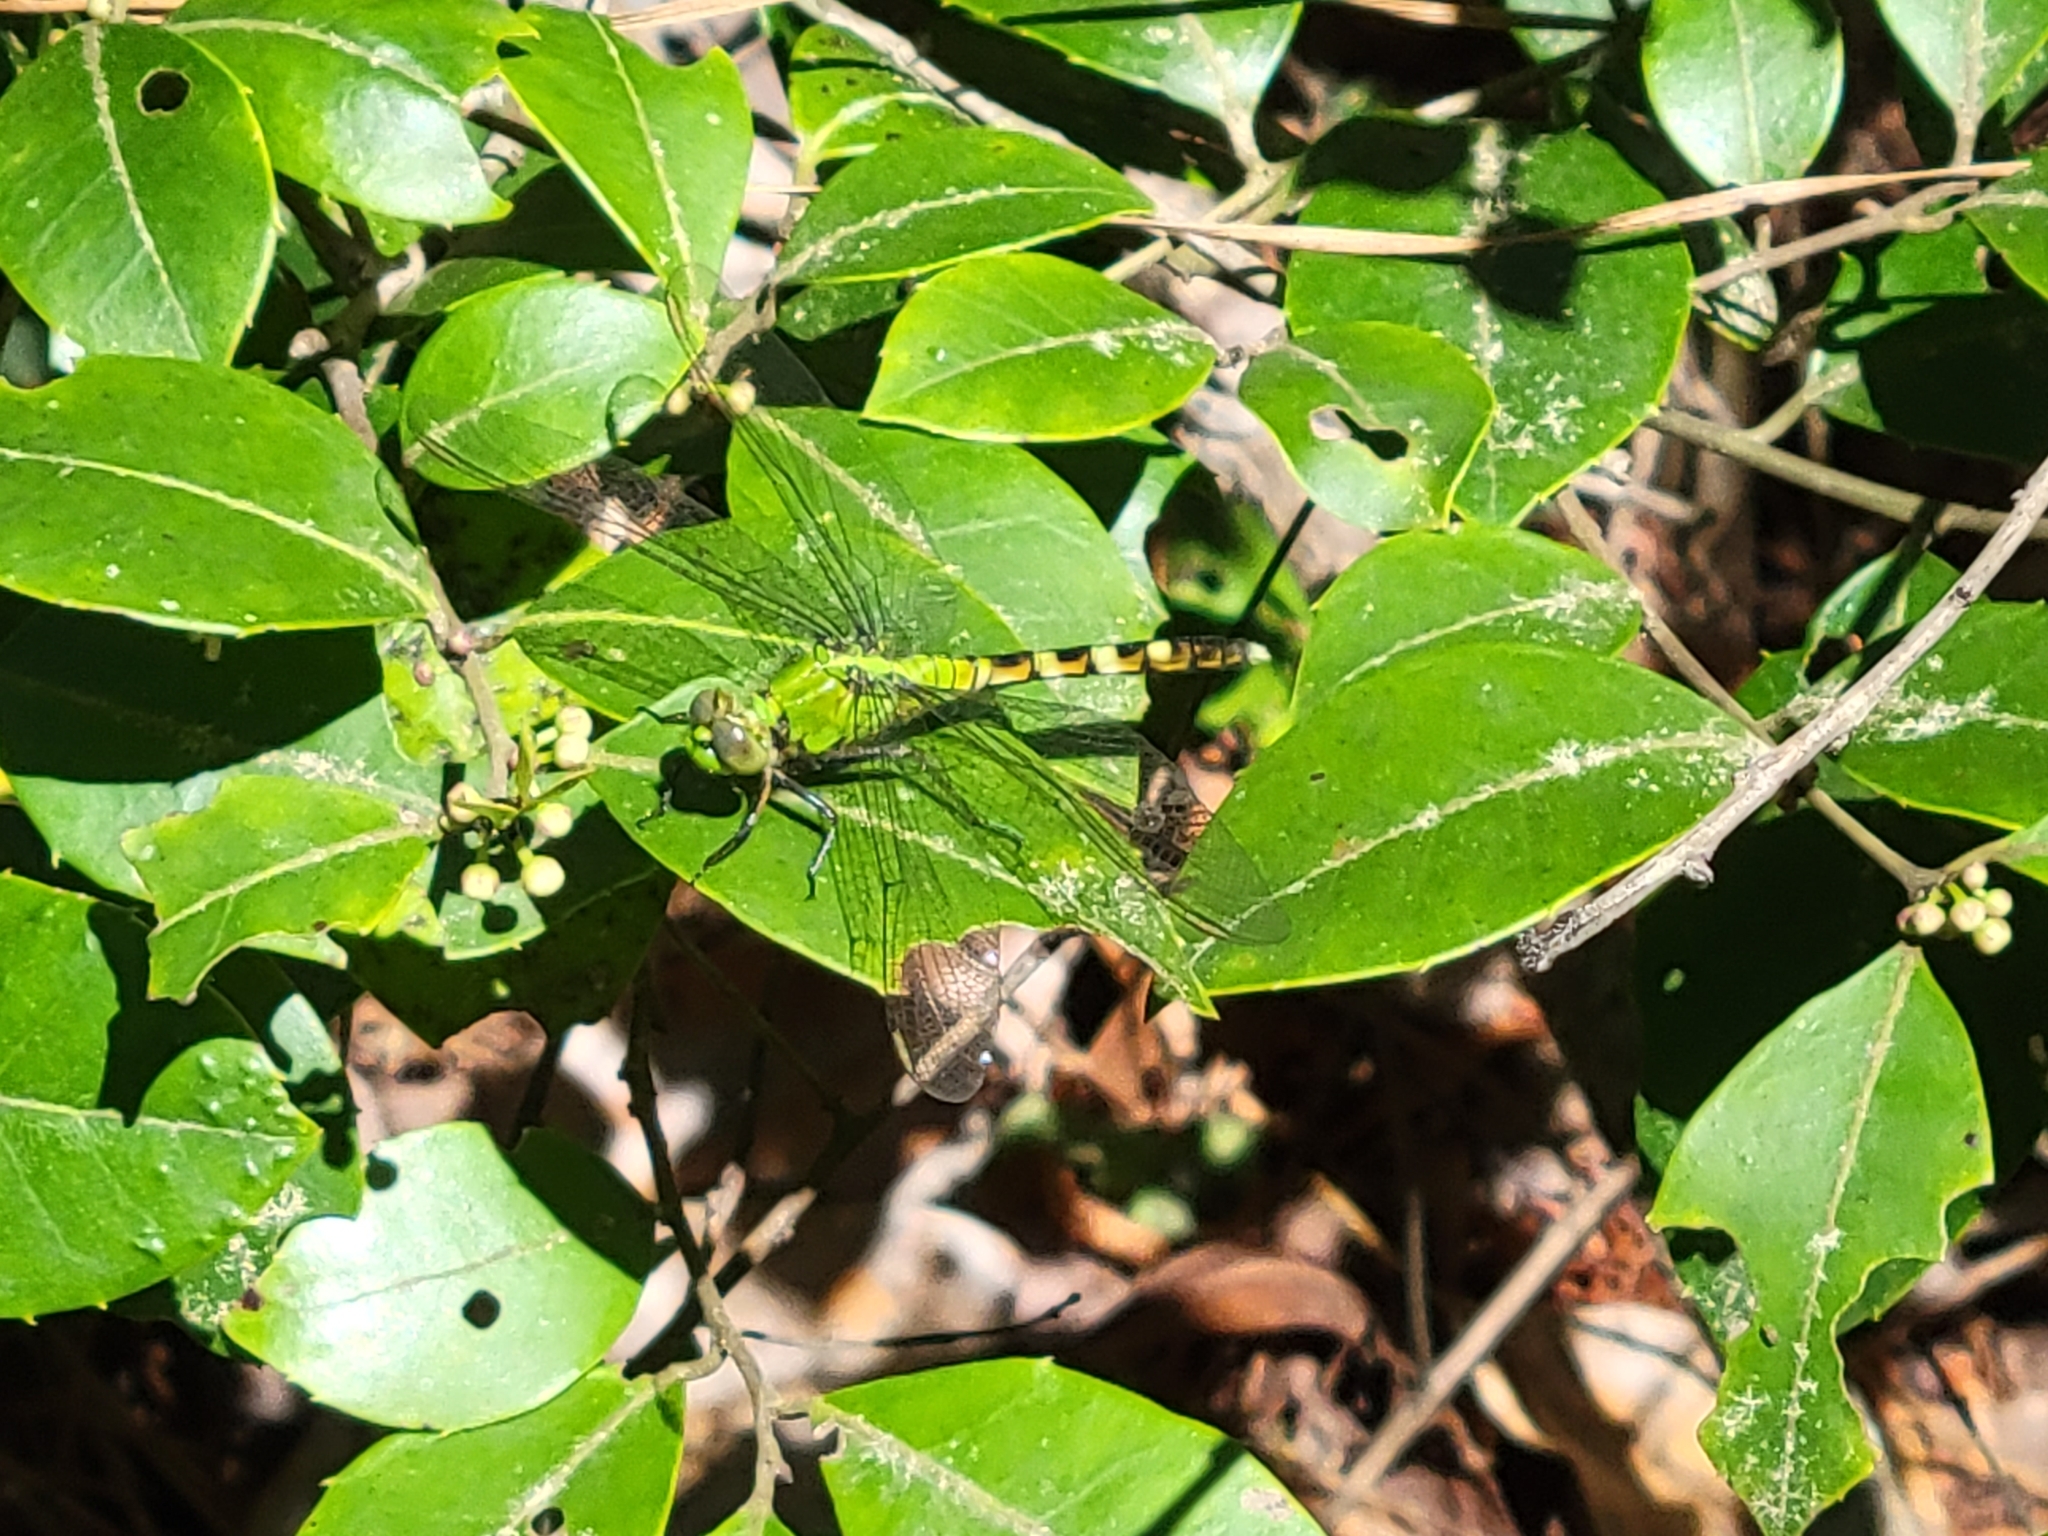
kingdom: Animalia
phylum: Arthropoda
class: Insecta
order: Odonata
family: Libellulidae
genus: Erythemis
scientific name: Erythemis simplicicollis
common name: Eastern pondhawk
